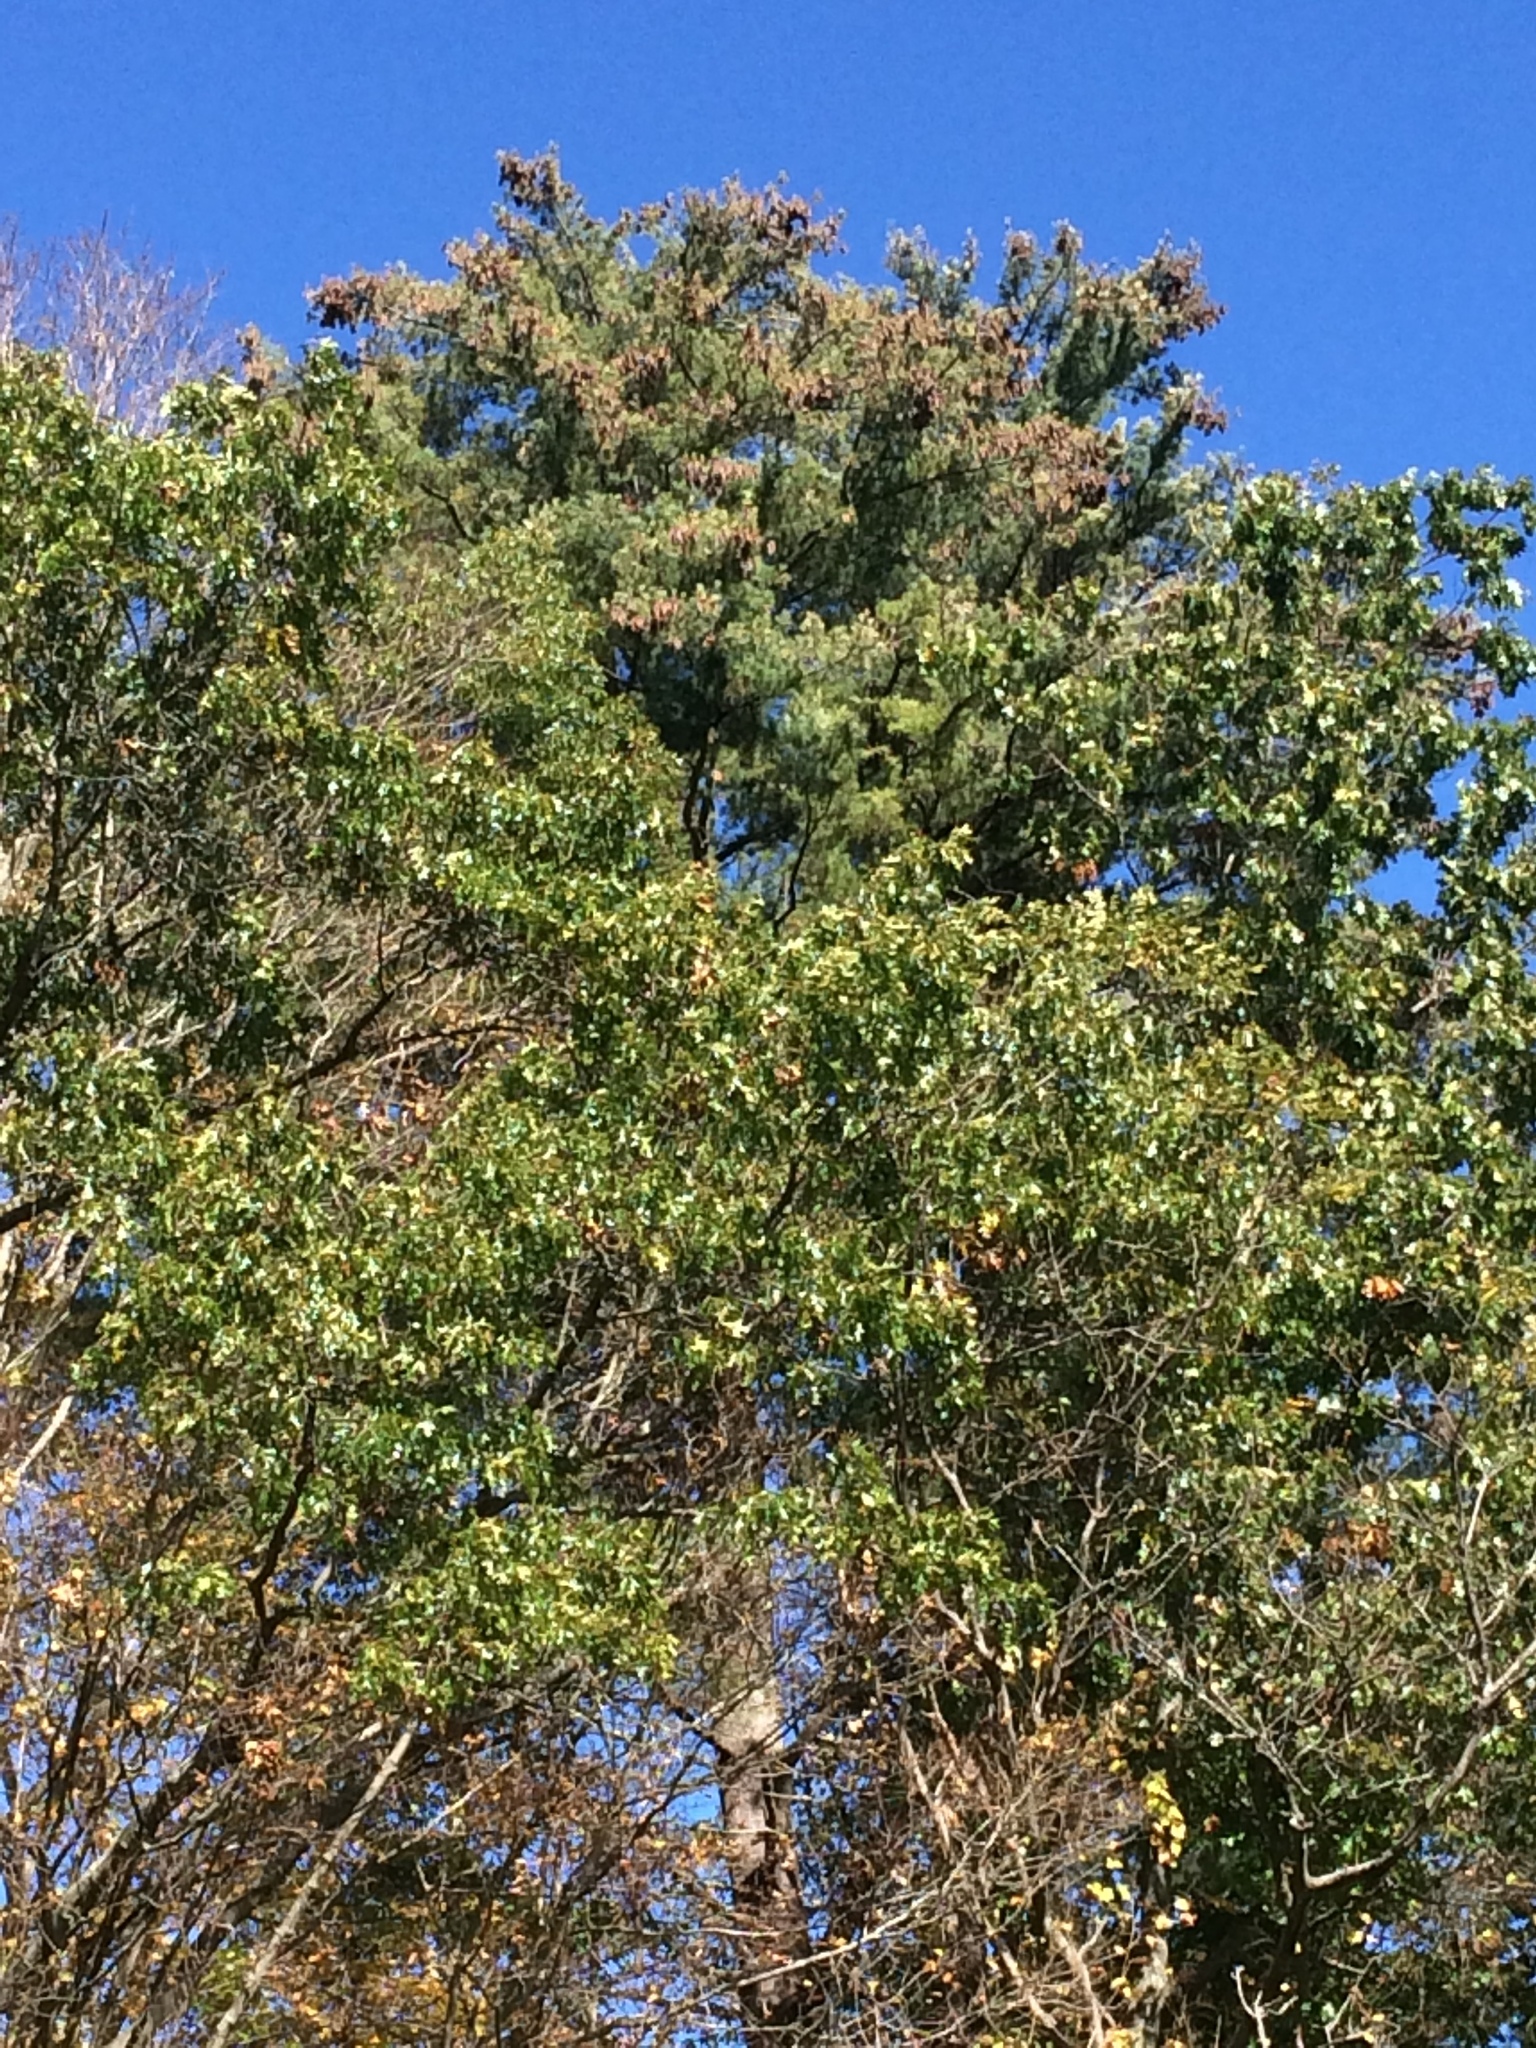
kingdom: Plantae
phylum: Tracheophyta
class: Pinopsida
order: Pinales
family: Pinaceae
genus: Pinus
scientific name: Pinus strobus
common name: Weymouth pine
